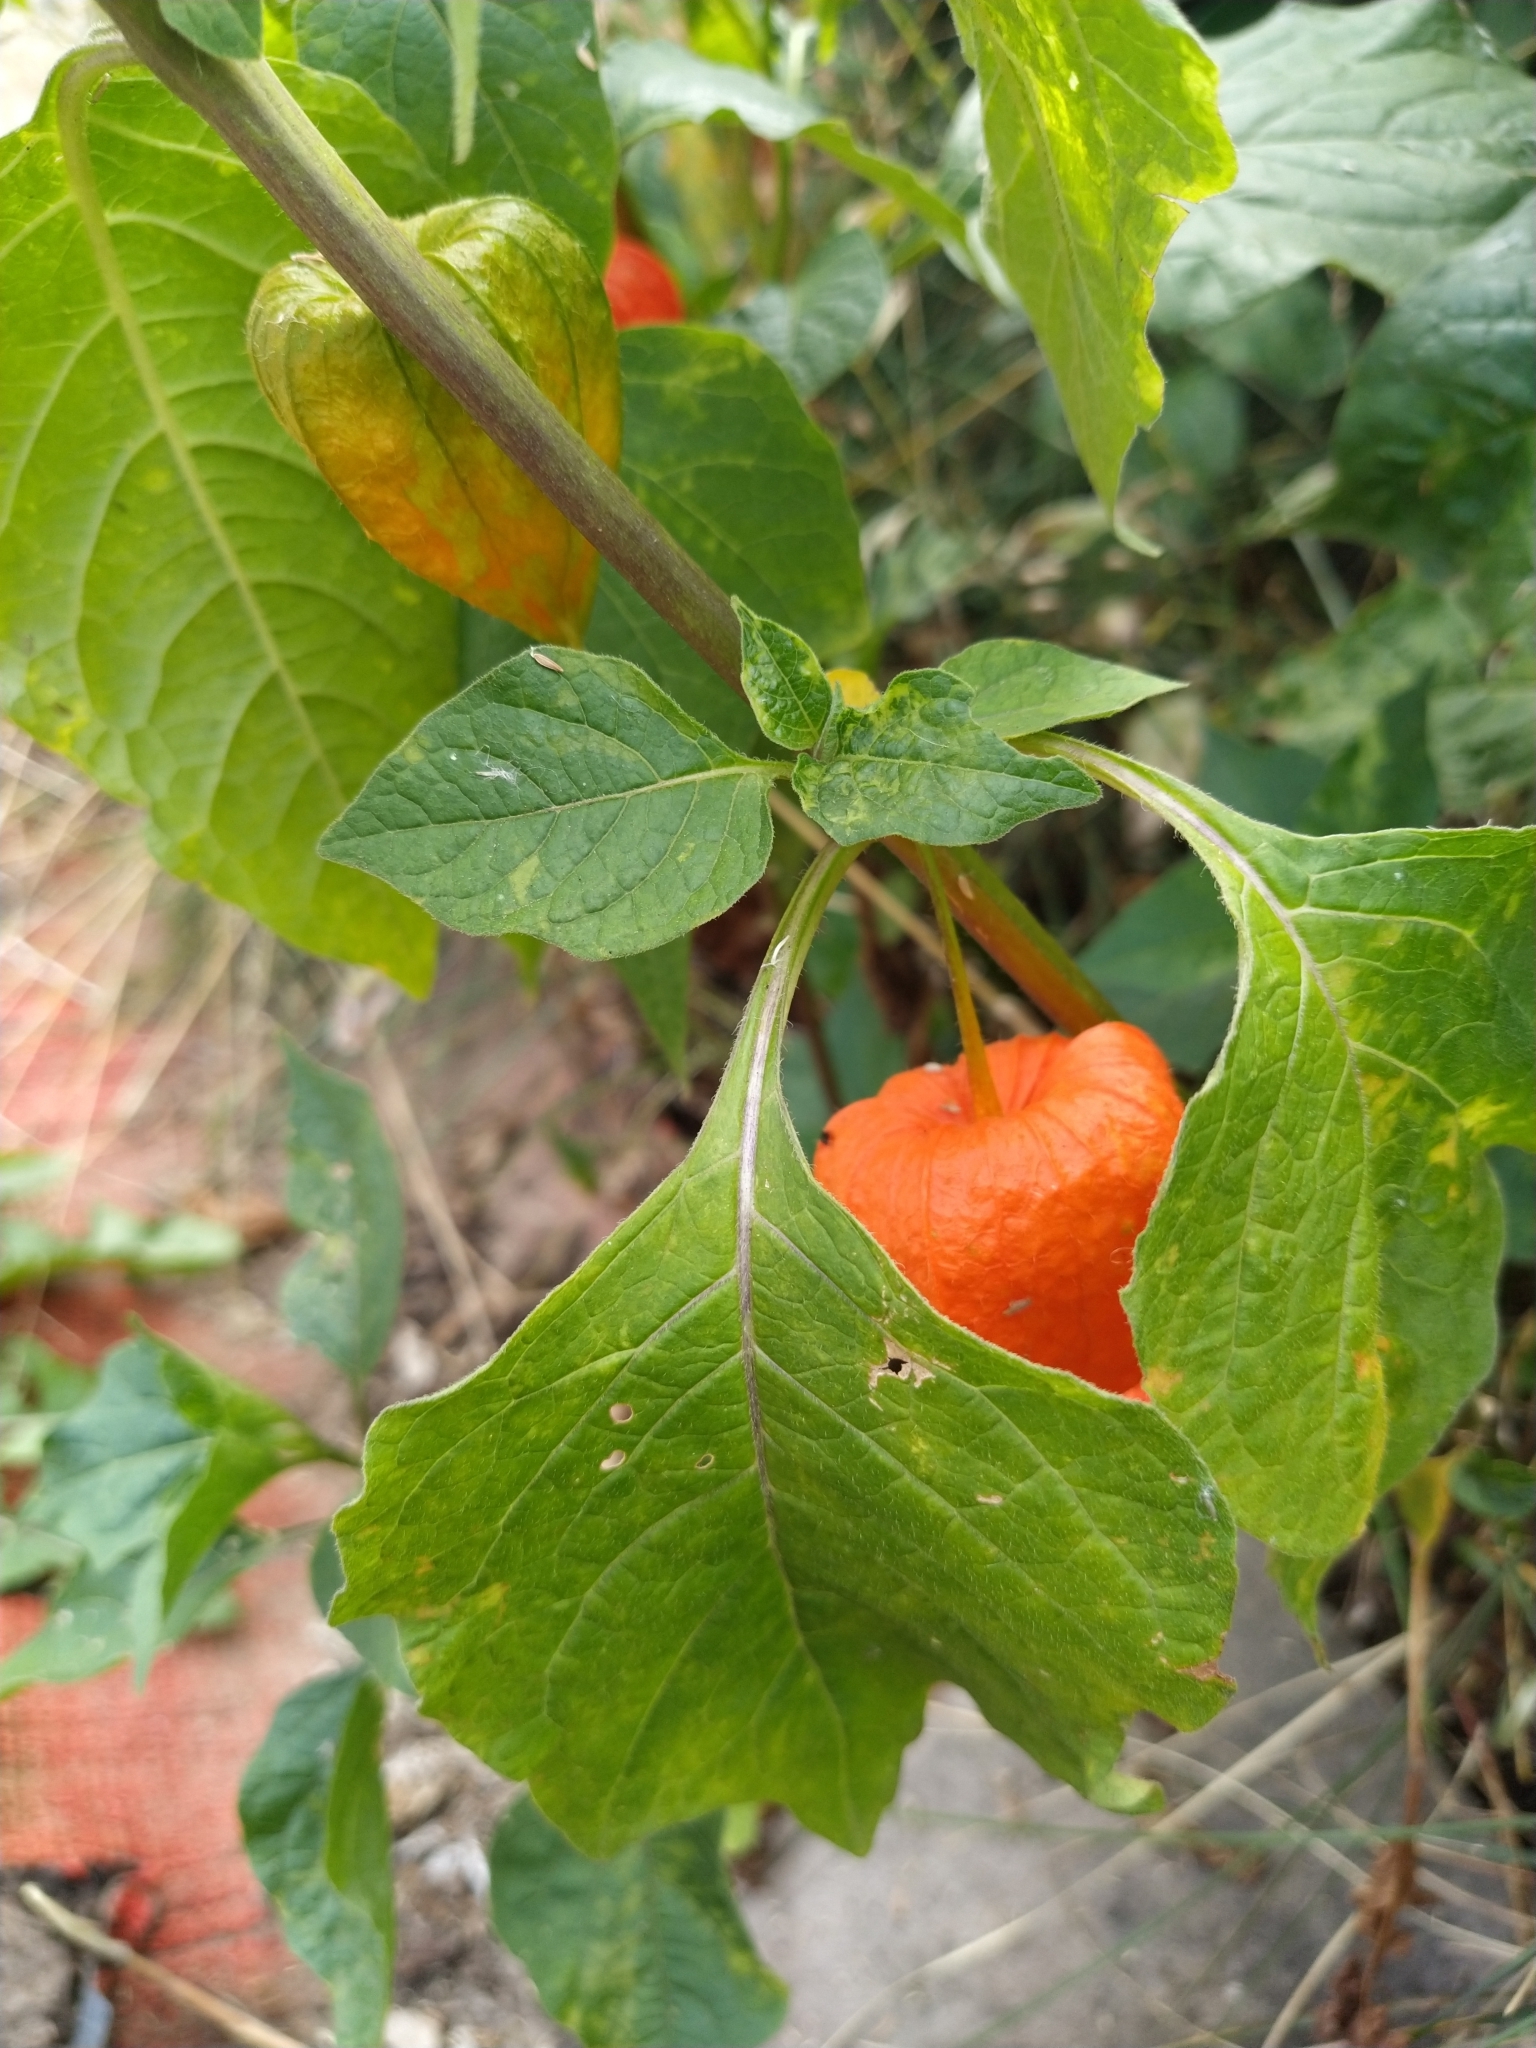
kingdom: Plantae
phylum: Tracheophyta
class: Magnoliopsida
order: Solanales
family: Solanaceae
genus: Alkekengi
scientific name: Alkekengi officinarum
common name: Japanese-lantern
